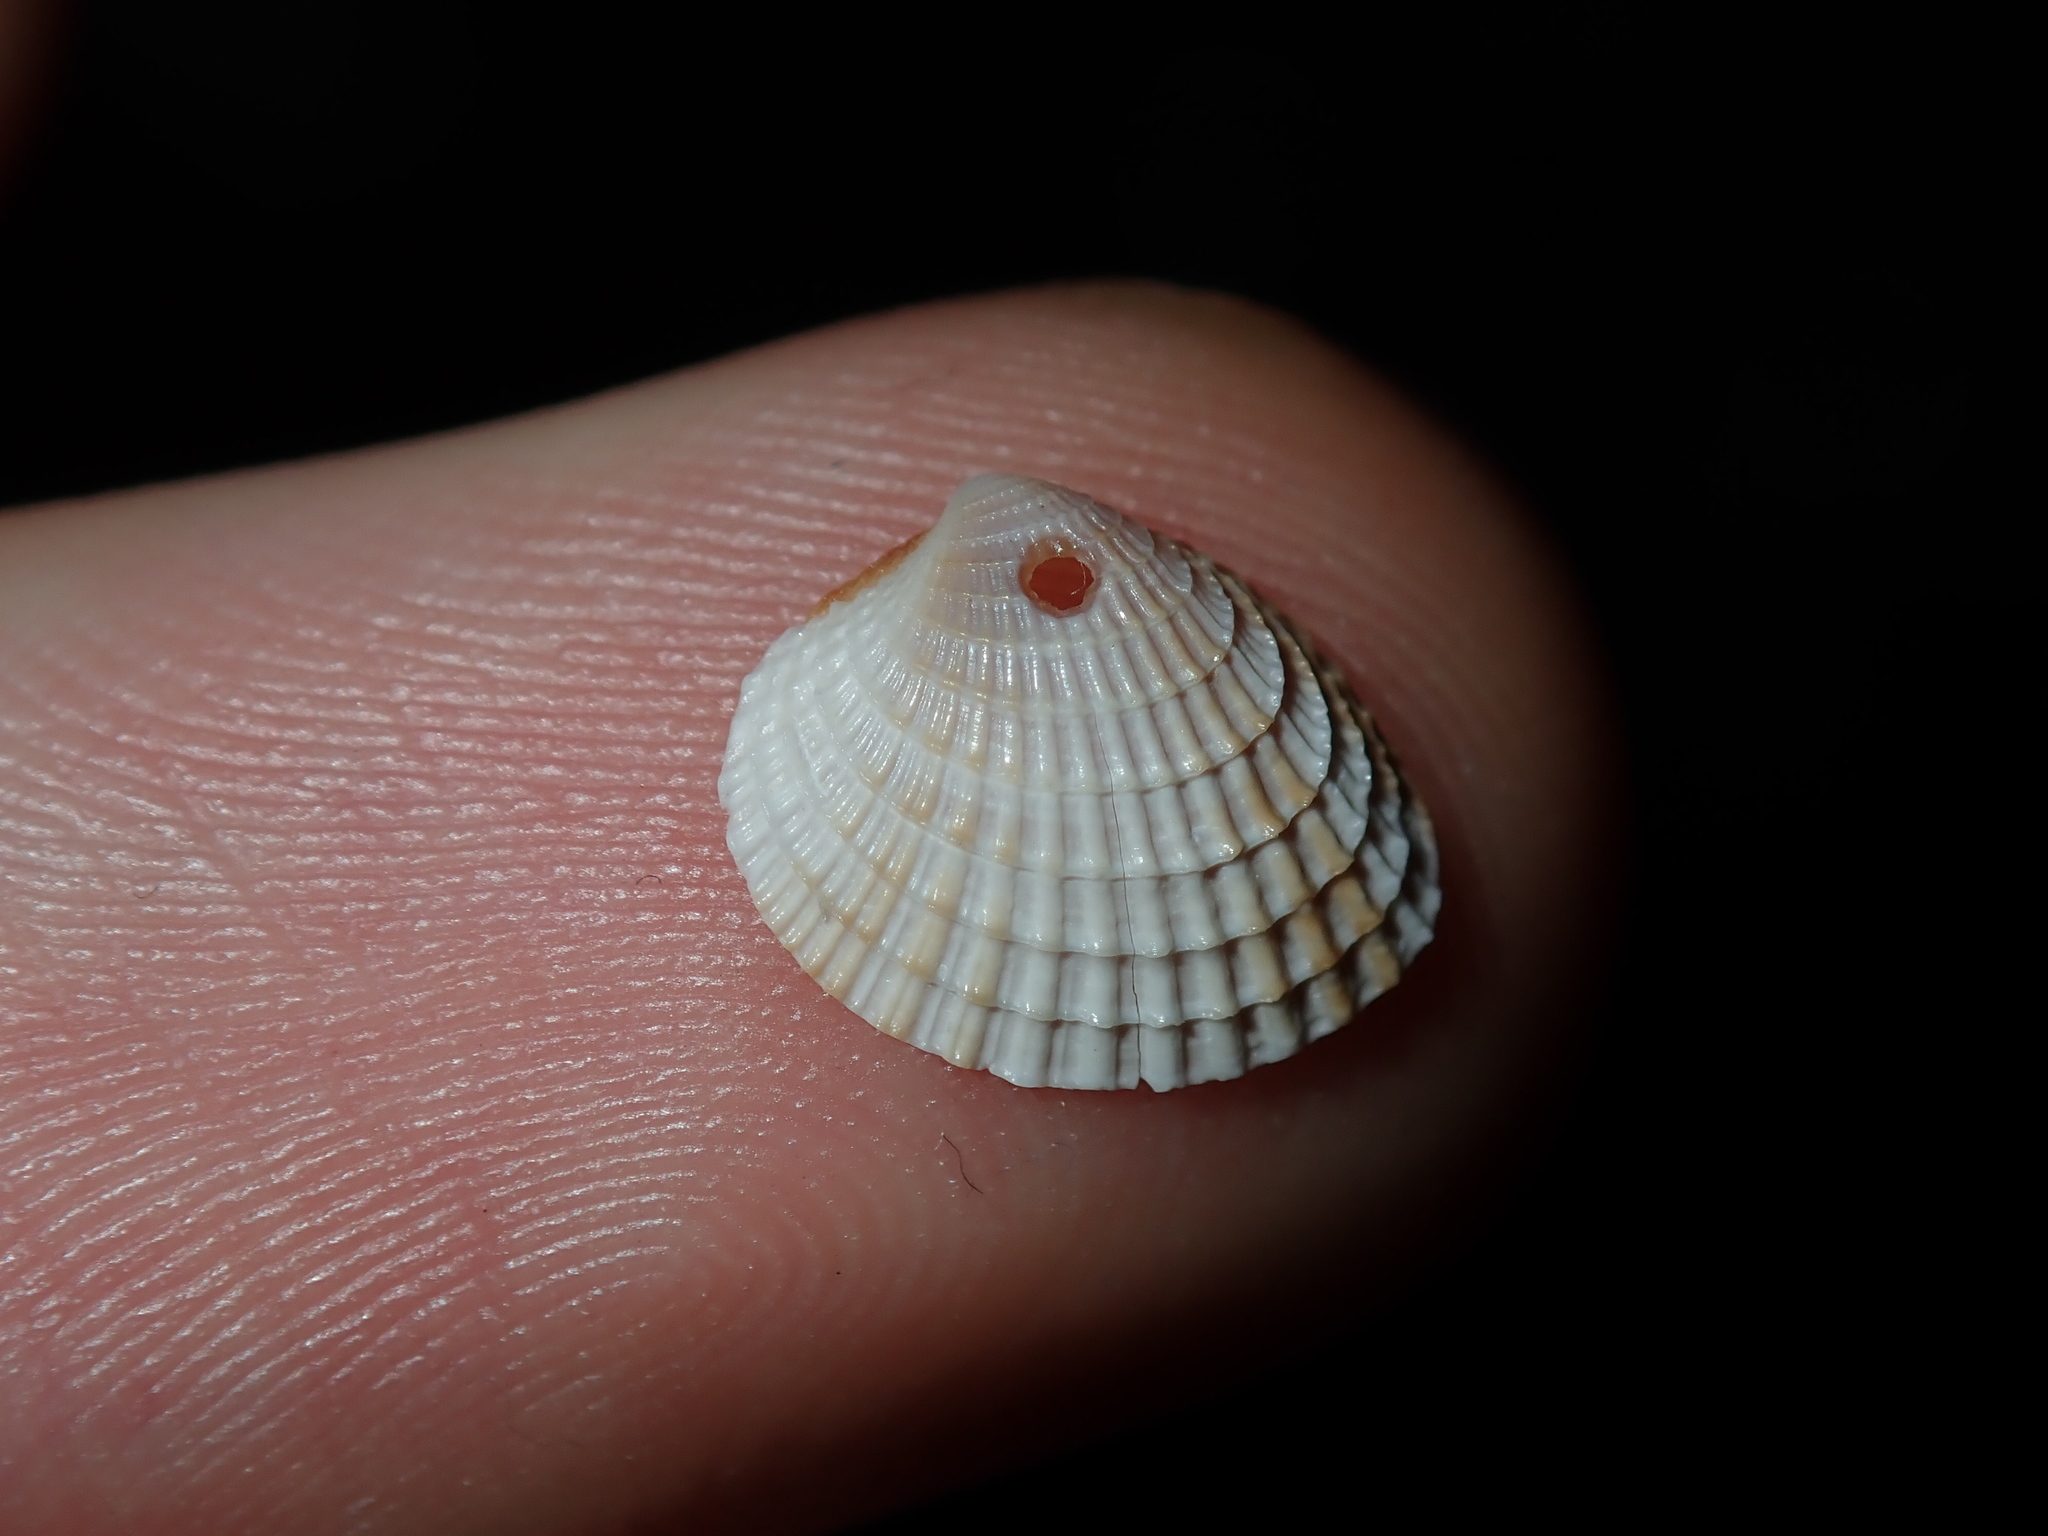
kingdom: Animalia
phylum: Mollusca
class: Bivalvia
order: Venerida
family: Veneridae
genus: Timoclea
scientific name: Timoclea scabra
